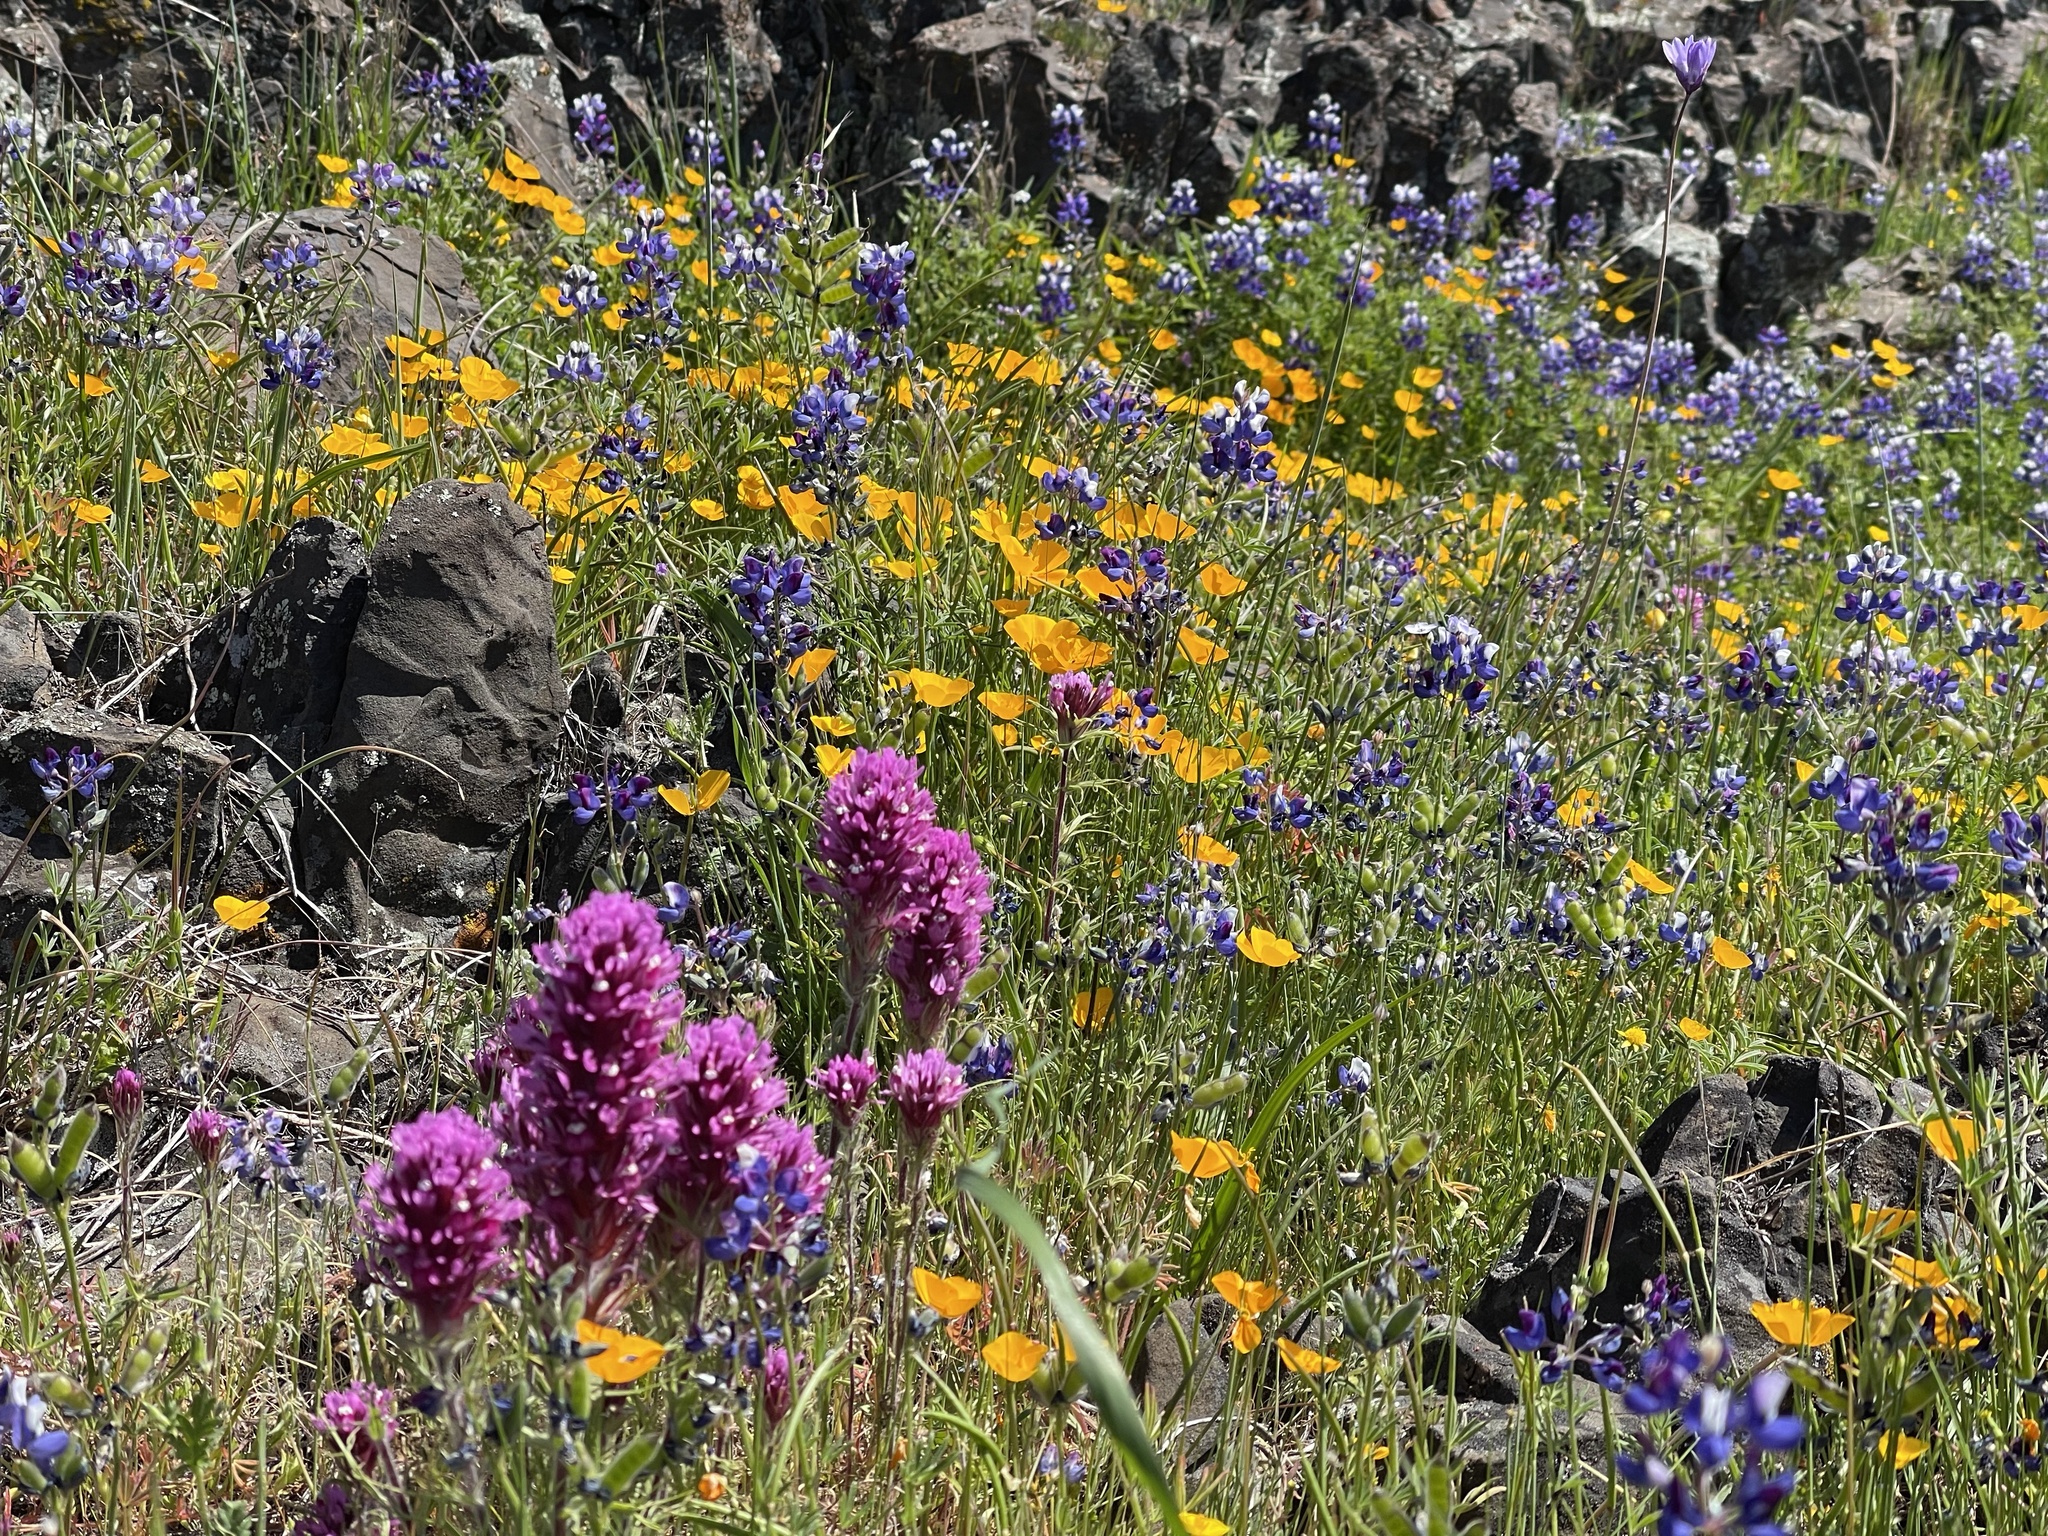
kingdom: Plantae
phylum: Tracheophyta
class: Magnoliopsida
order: Lamiales
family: Orobanchaceae
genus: Castilleja
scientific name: Castilleja exserta
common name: Purple owl-clover
